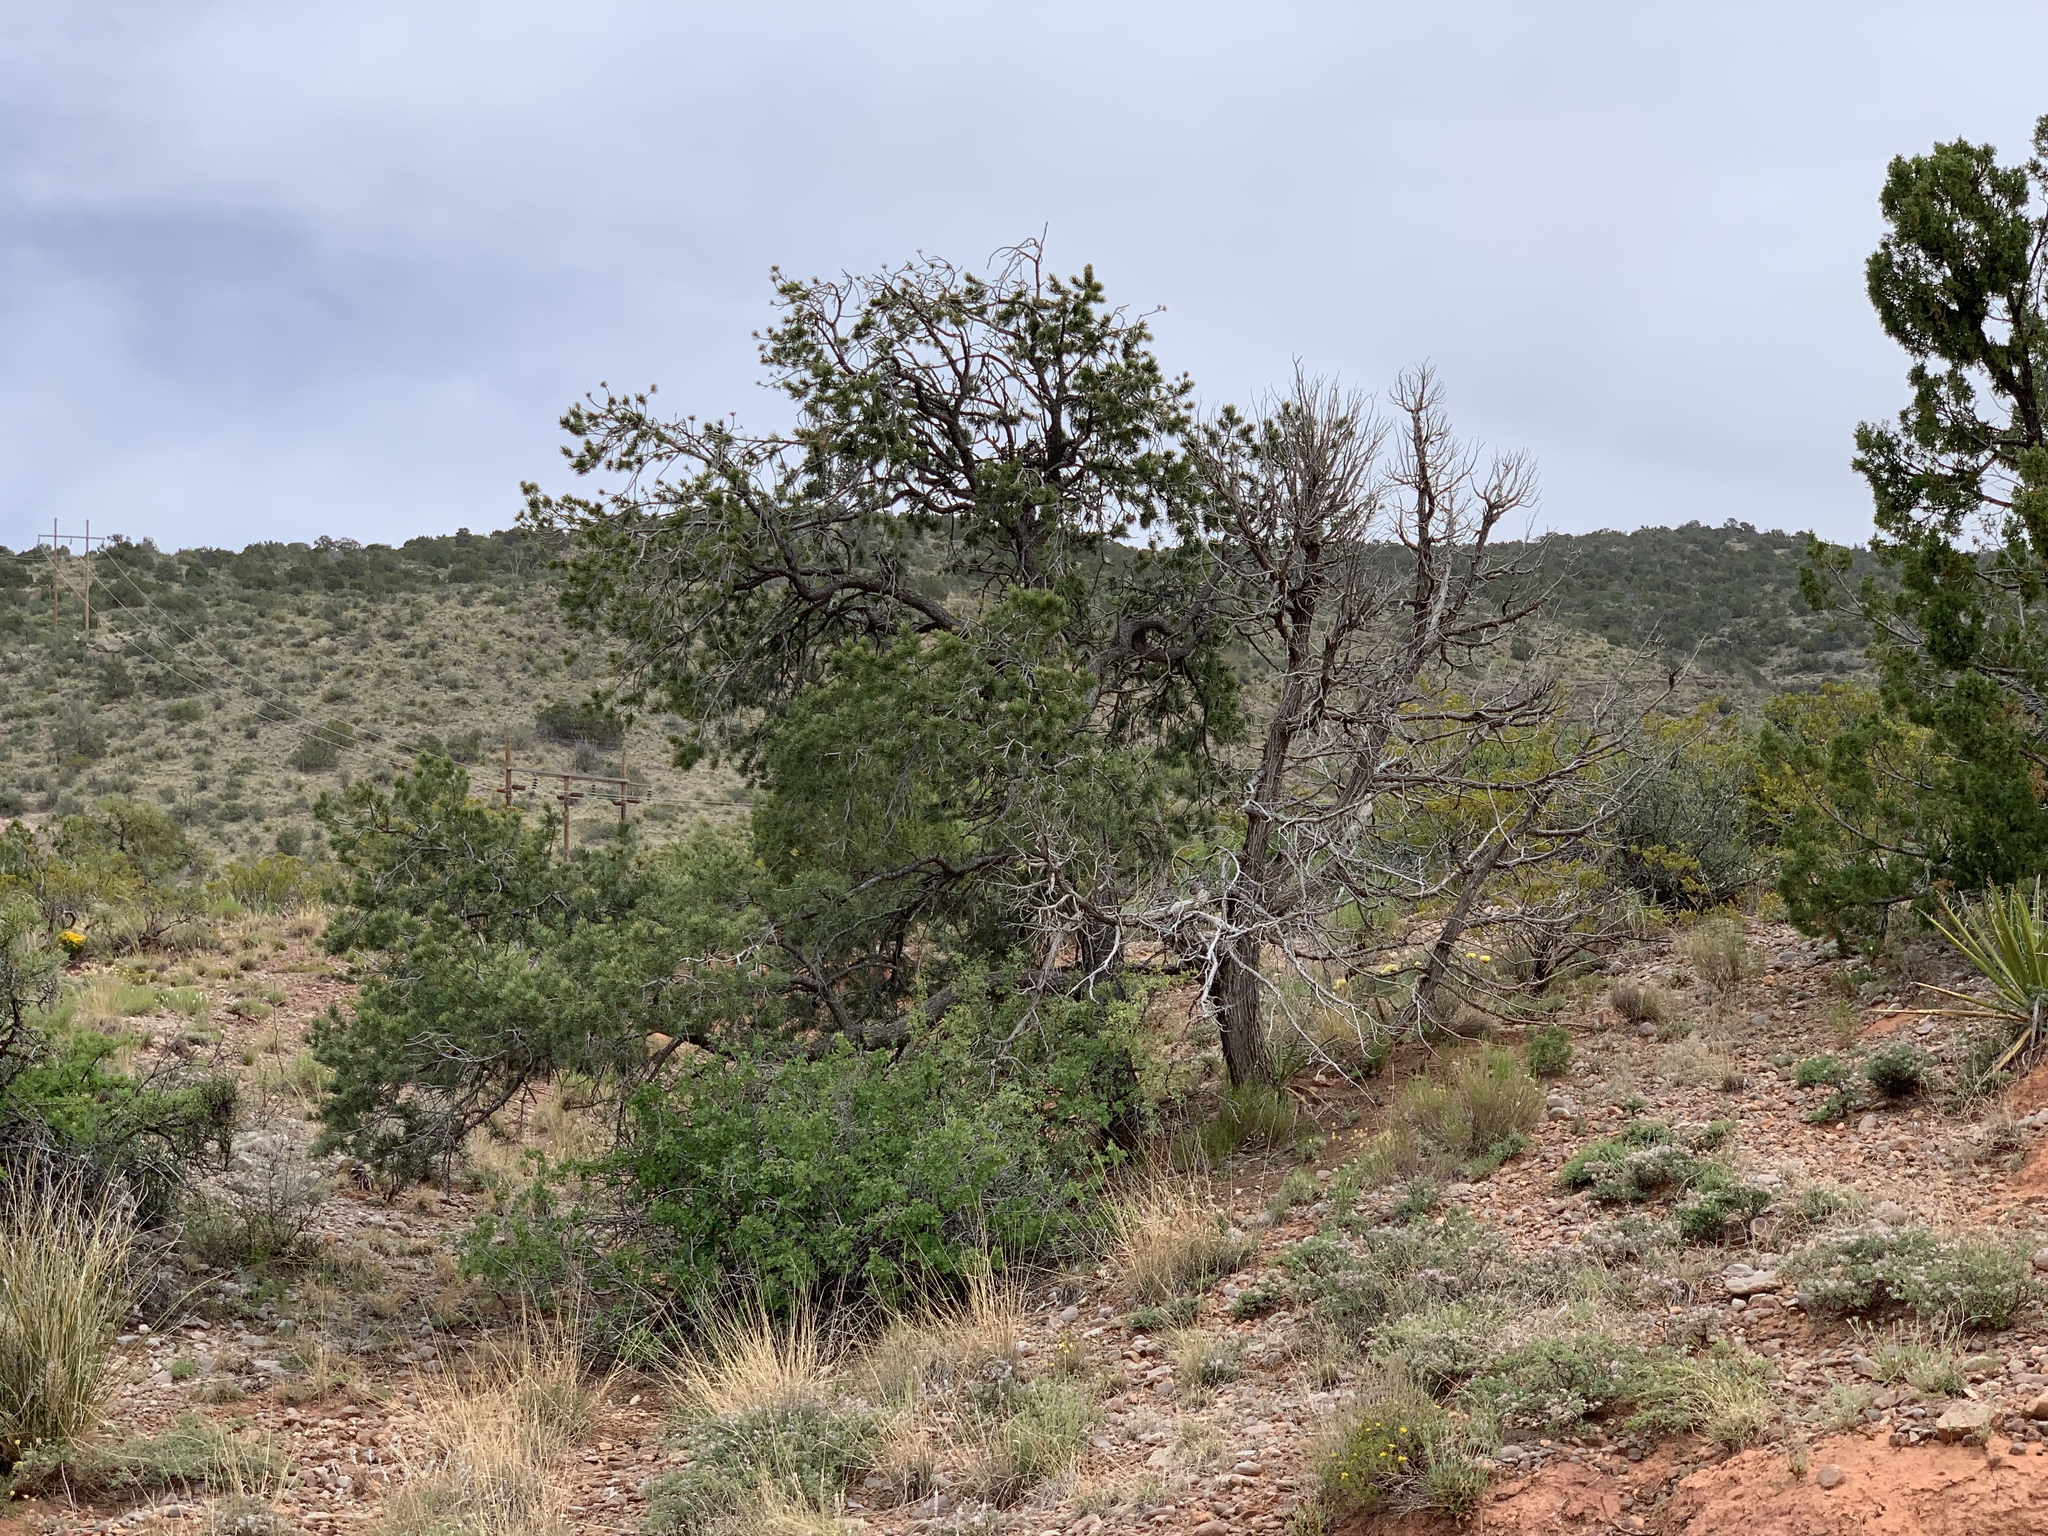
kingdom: Plantae
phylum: Tracheophyta
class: Pinopsida
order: Pinales
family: Pinaceae
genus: Pinus
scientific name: Pinus edulis
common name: Colorado pinyon
